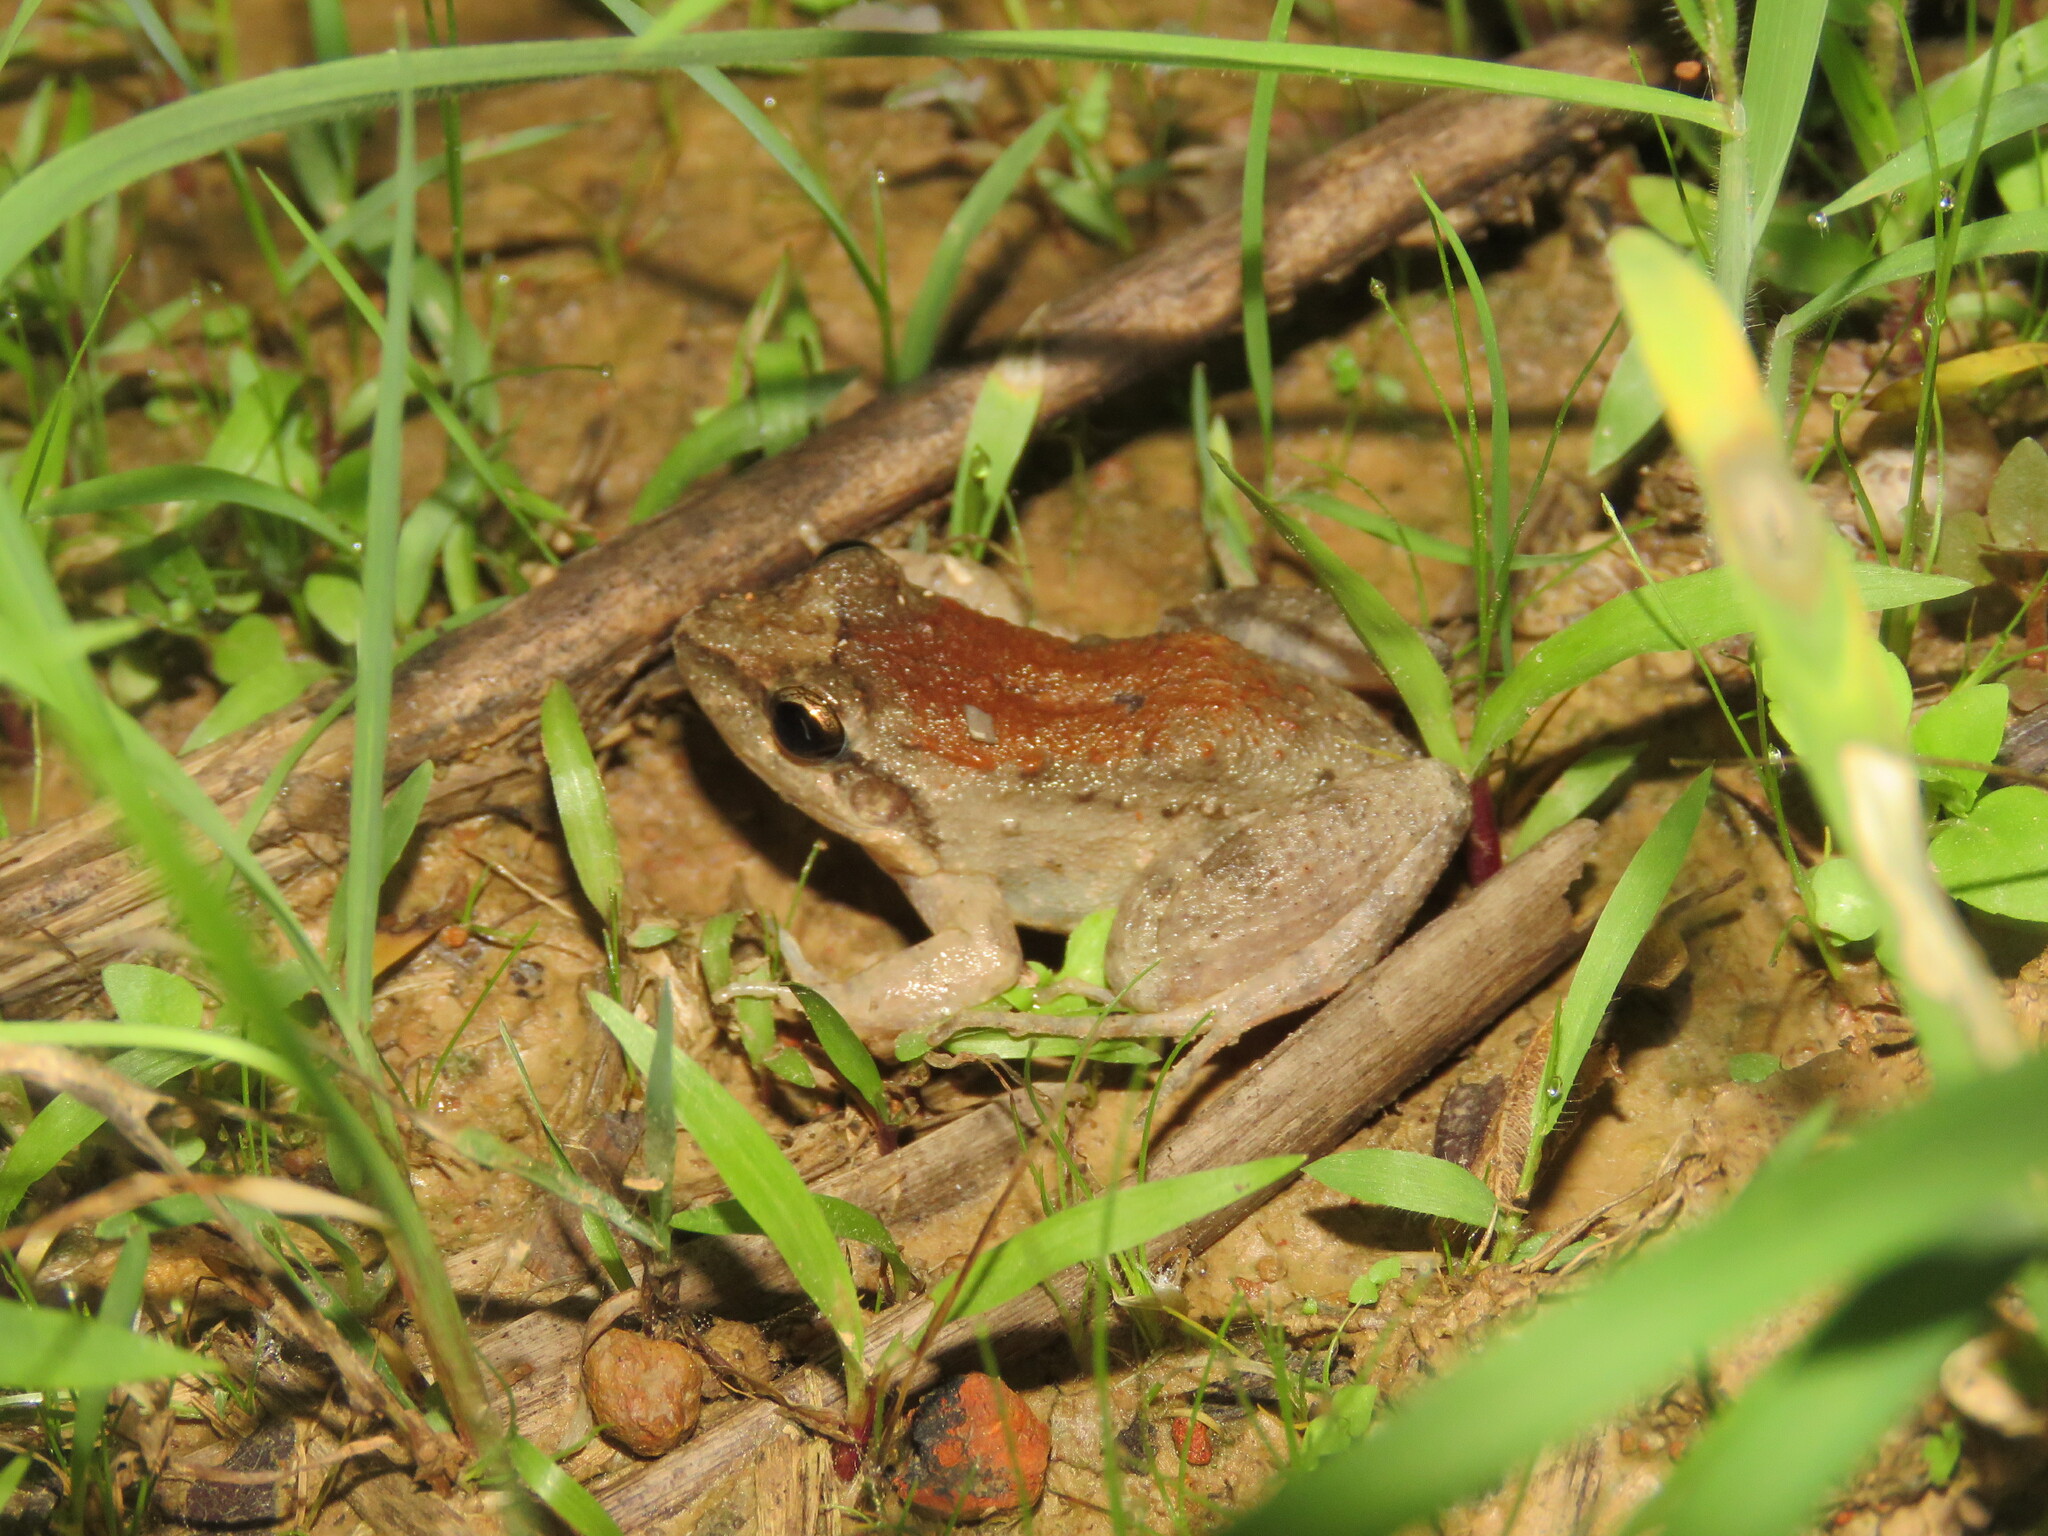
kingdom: Animalia
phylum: Chordata
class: Amphibia
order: Anura
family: Leptodactylidae
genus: Leptodactylus
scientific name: Leptodactylus petersii
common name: Peters' thin-toed frog
